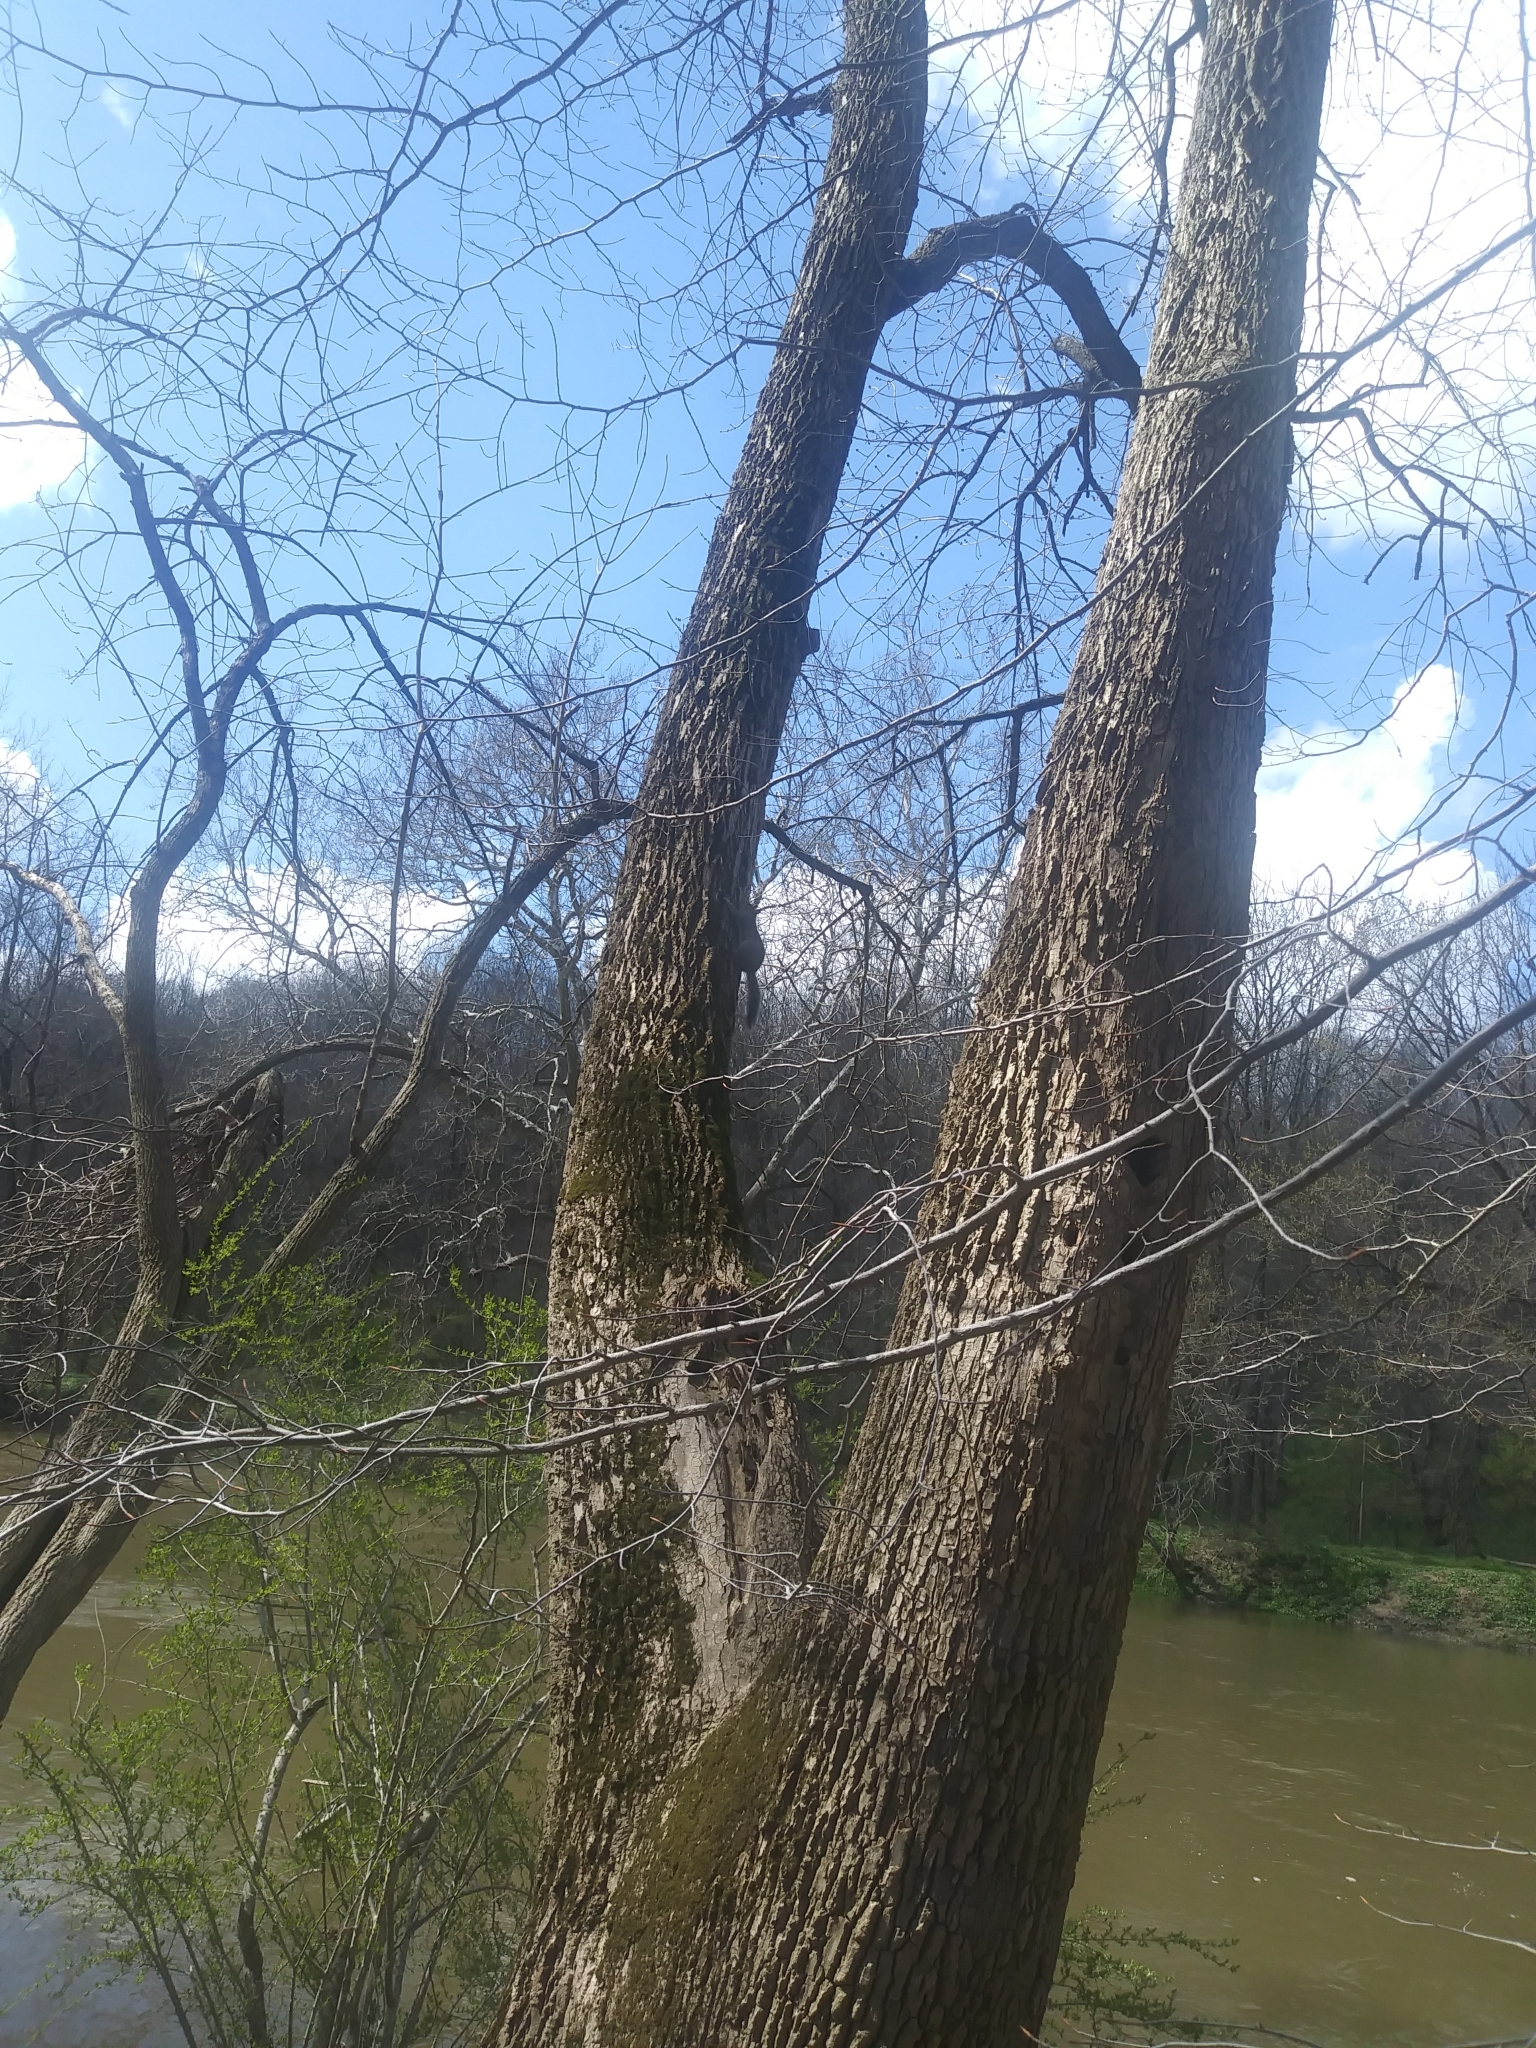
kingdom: Animalia
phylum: Chordata
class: Mammalia
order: Rodentia
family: Sciuridae
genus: Sciurus
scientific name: Sciurus carolinensis
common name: Eastern gray squirrel
